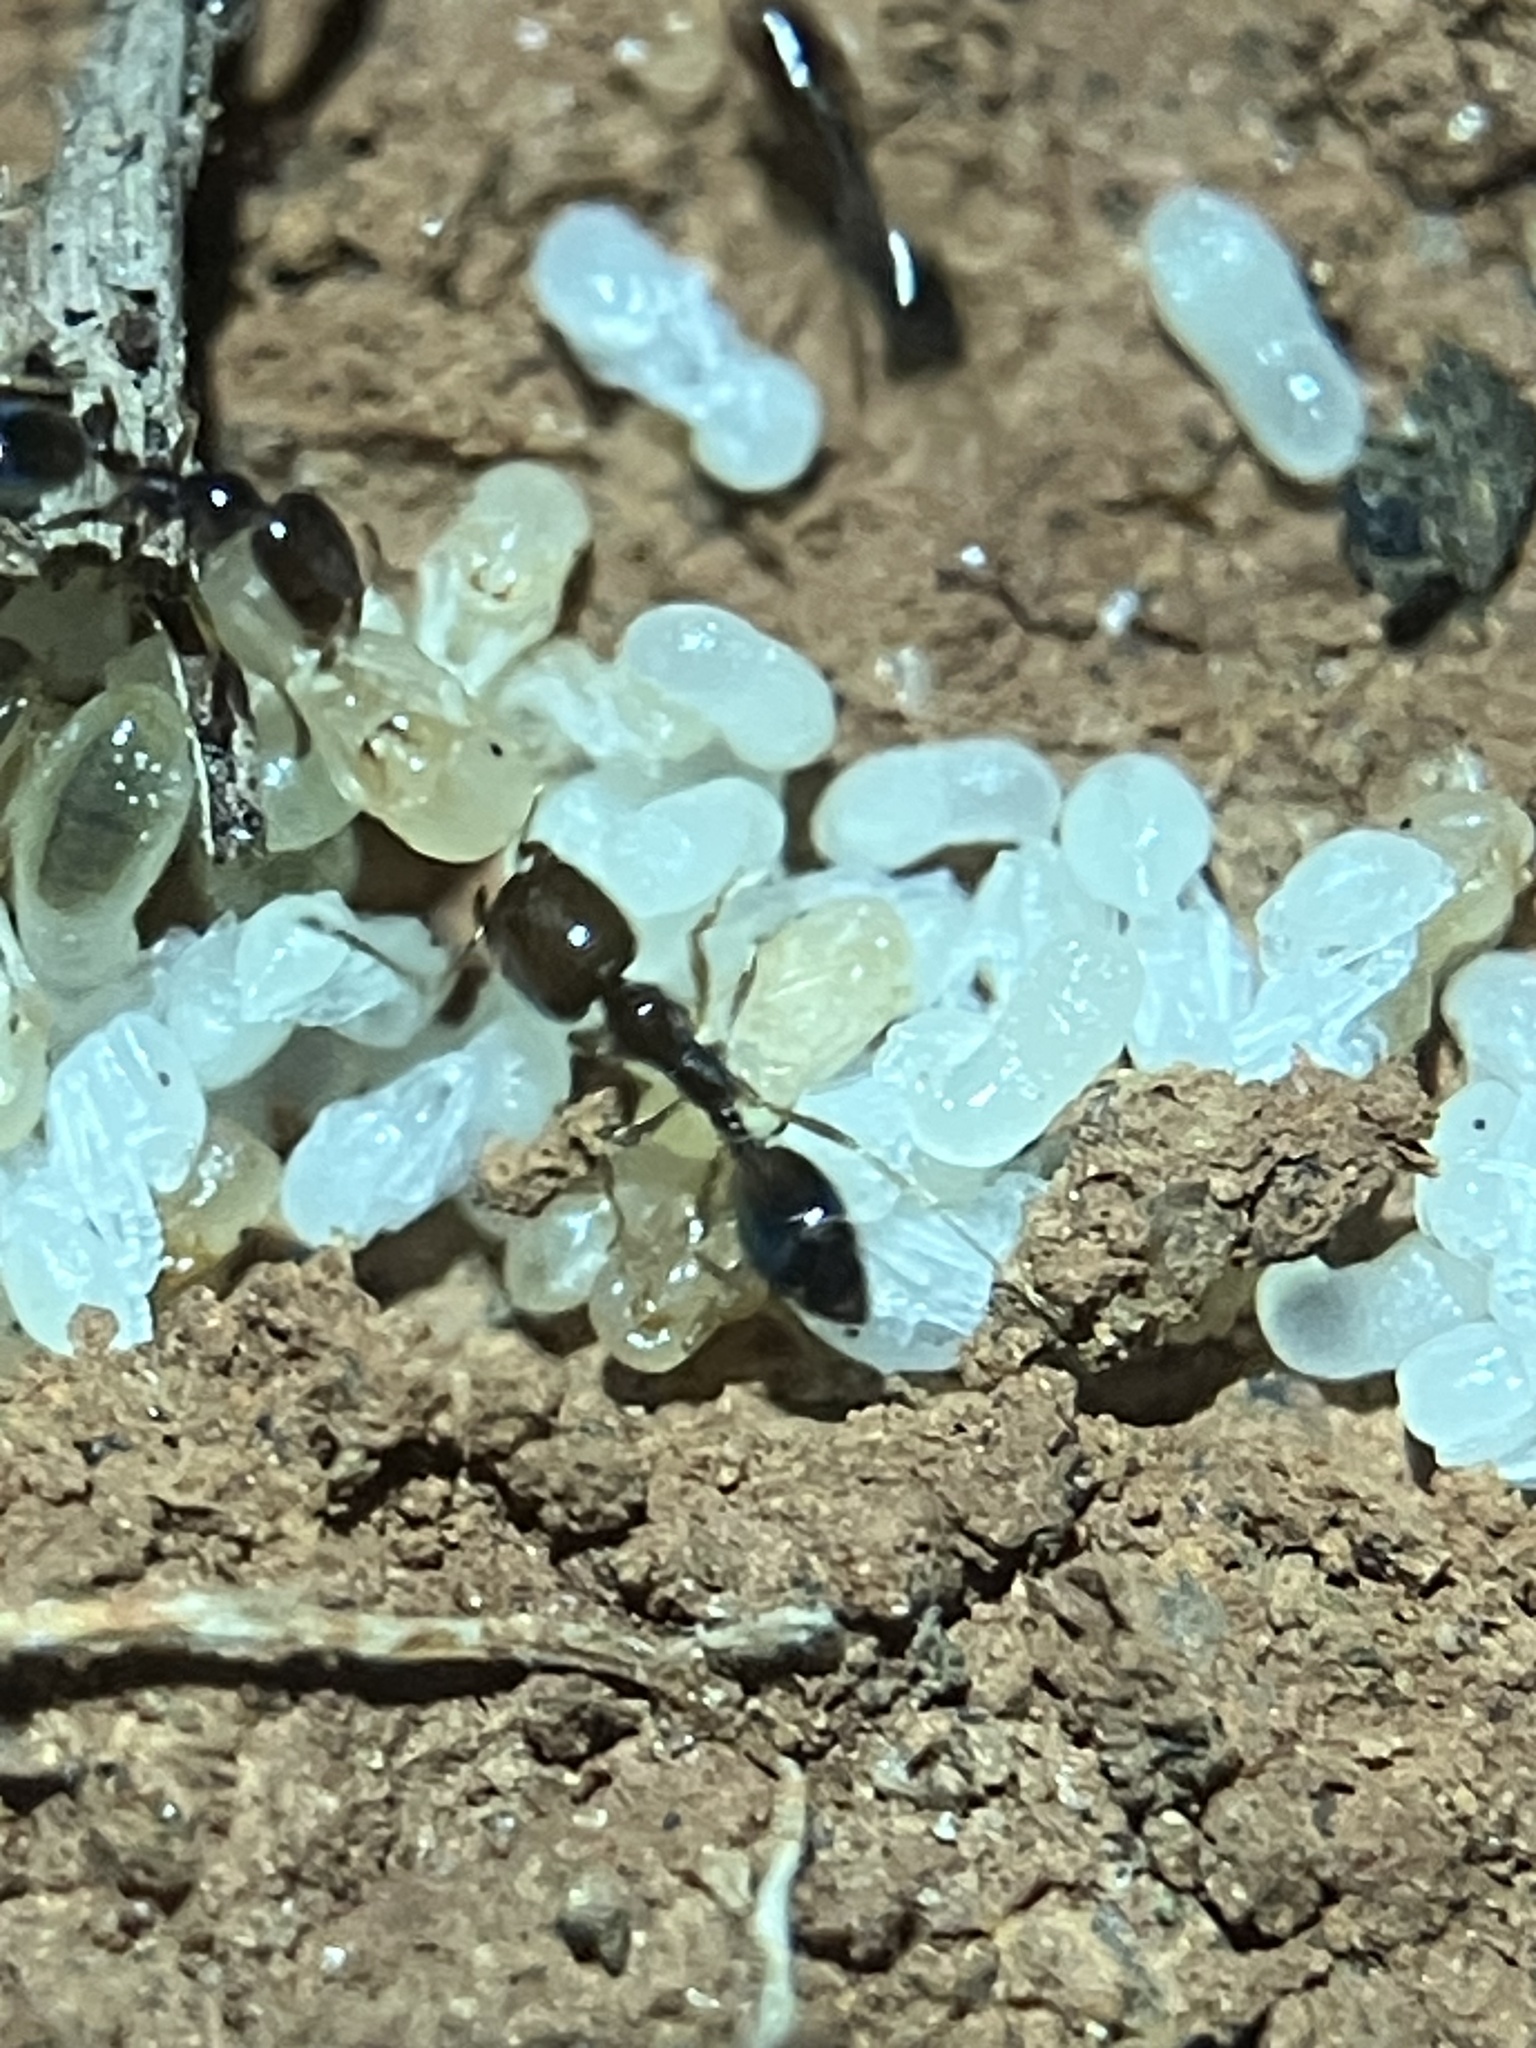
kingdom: Animalia
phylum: Arthropoda
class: Insecta
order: Hymenoptera
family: Formicidae
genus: Trichomyrmex
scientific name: Trichomyrmex mayri
